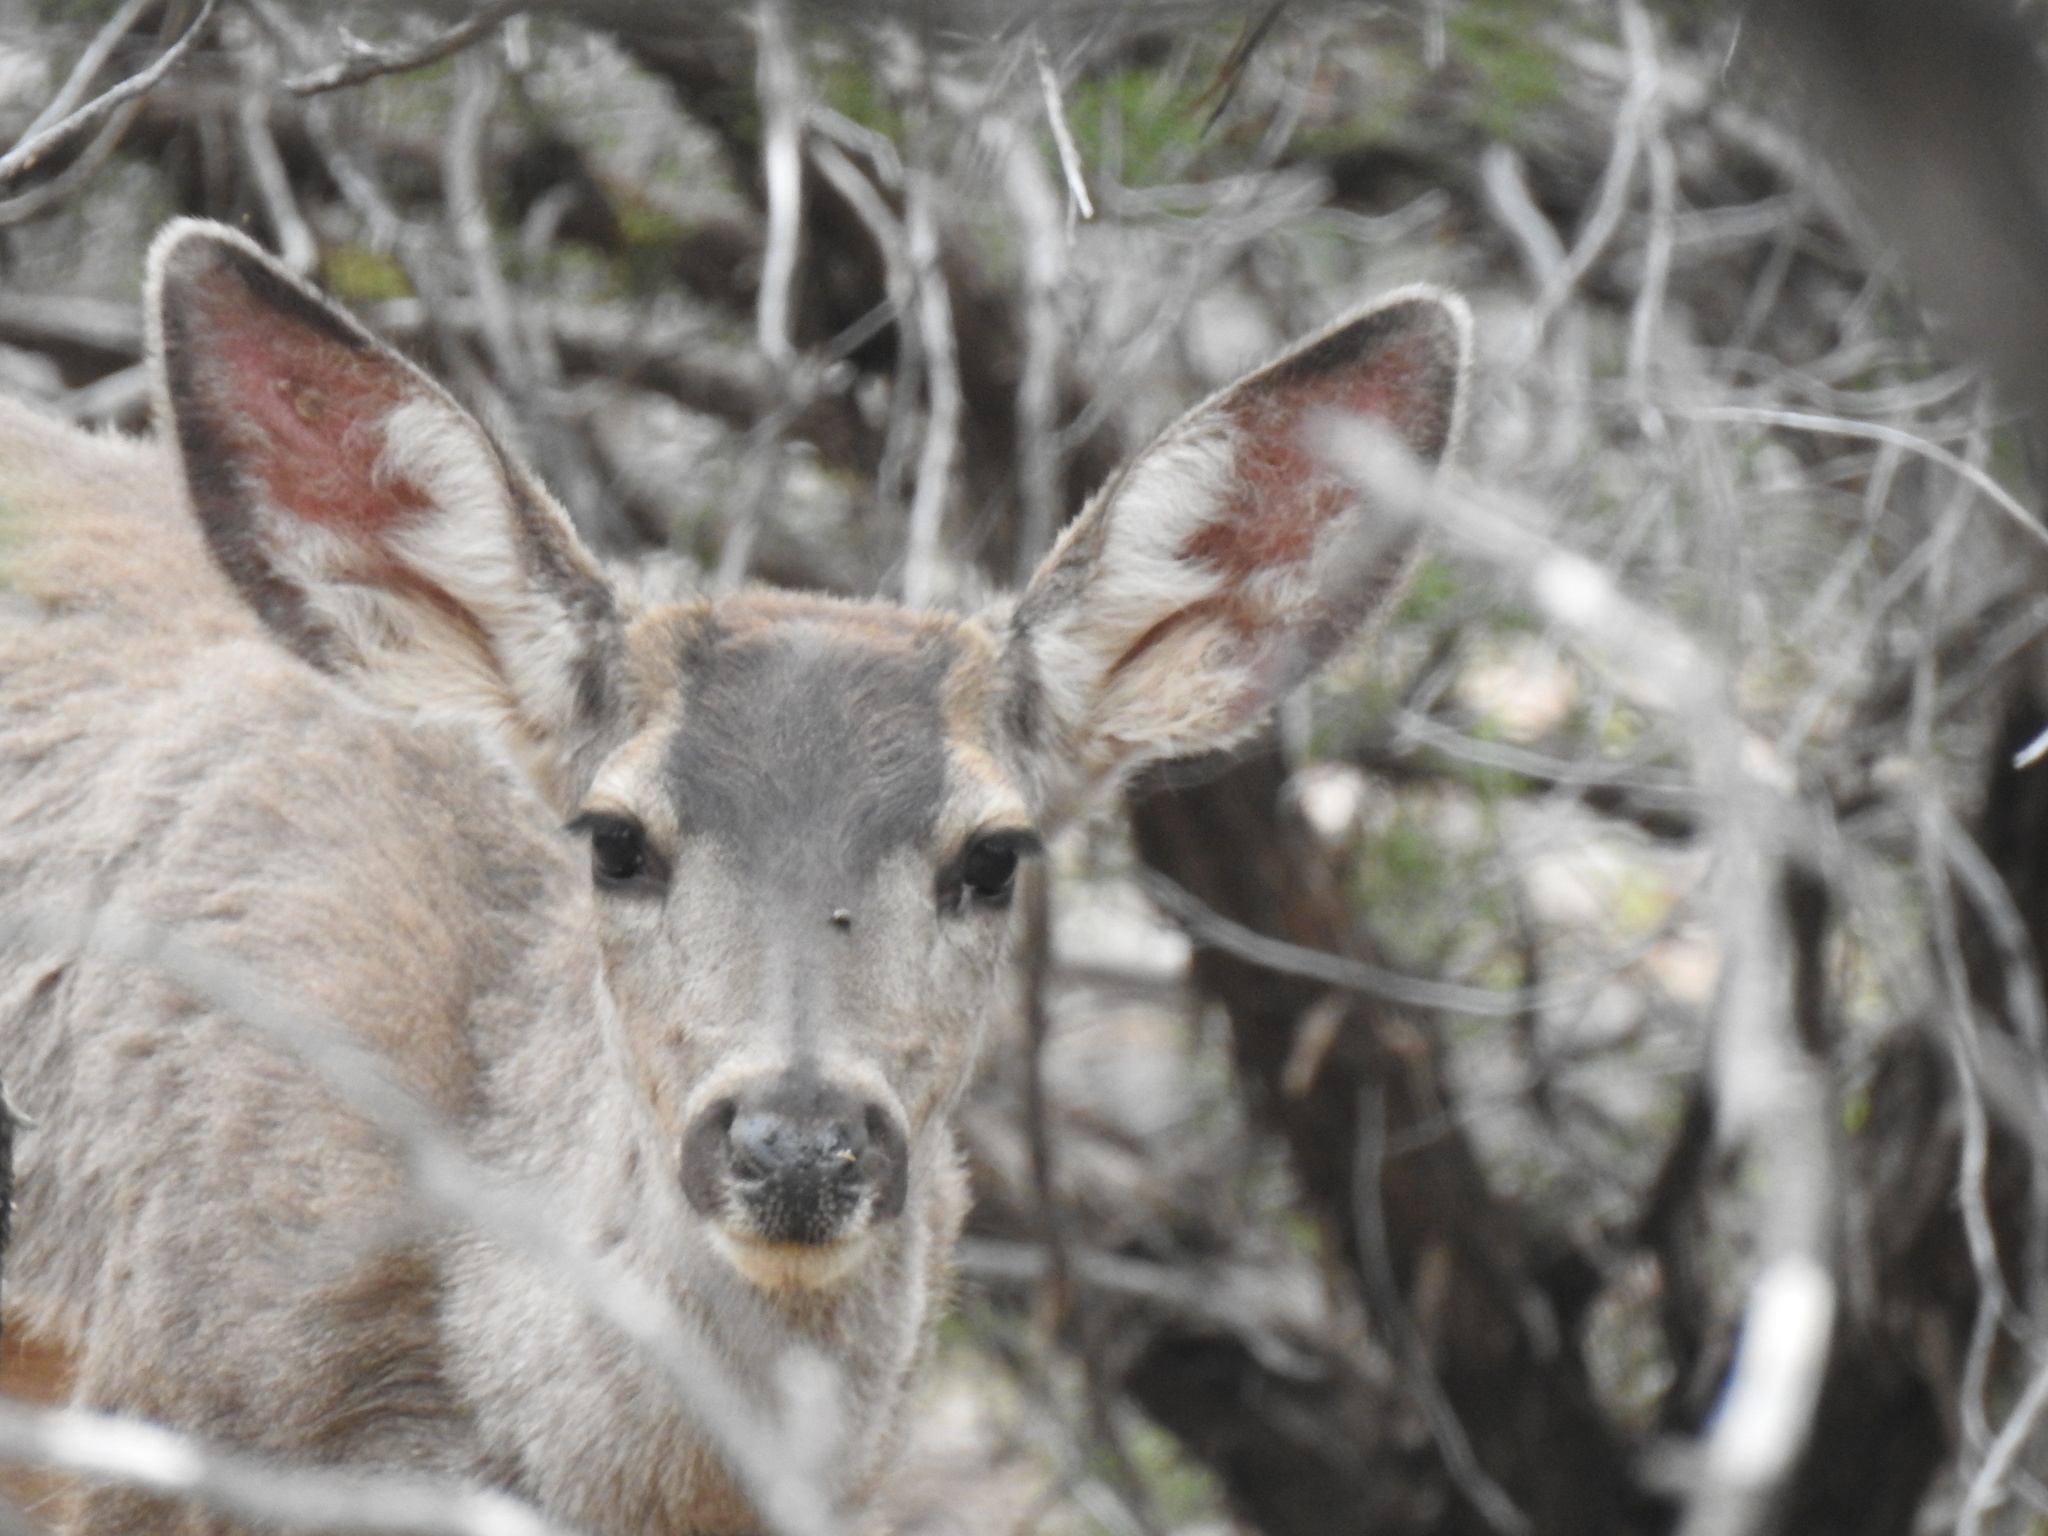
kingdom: Animalia
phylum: Chordata
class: Mammalia
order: Artiodactyla
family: Cervidae
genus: Odocoileus
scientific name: Odocoileus hemionus
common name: Mule deer
